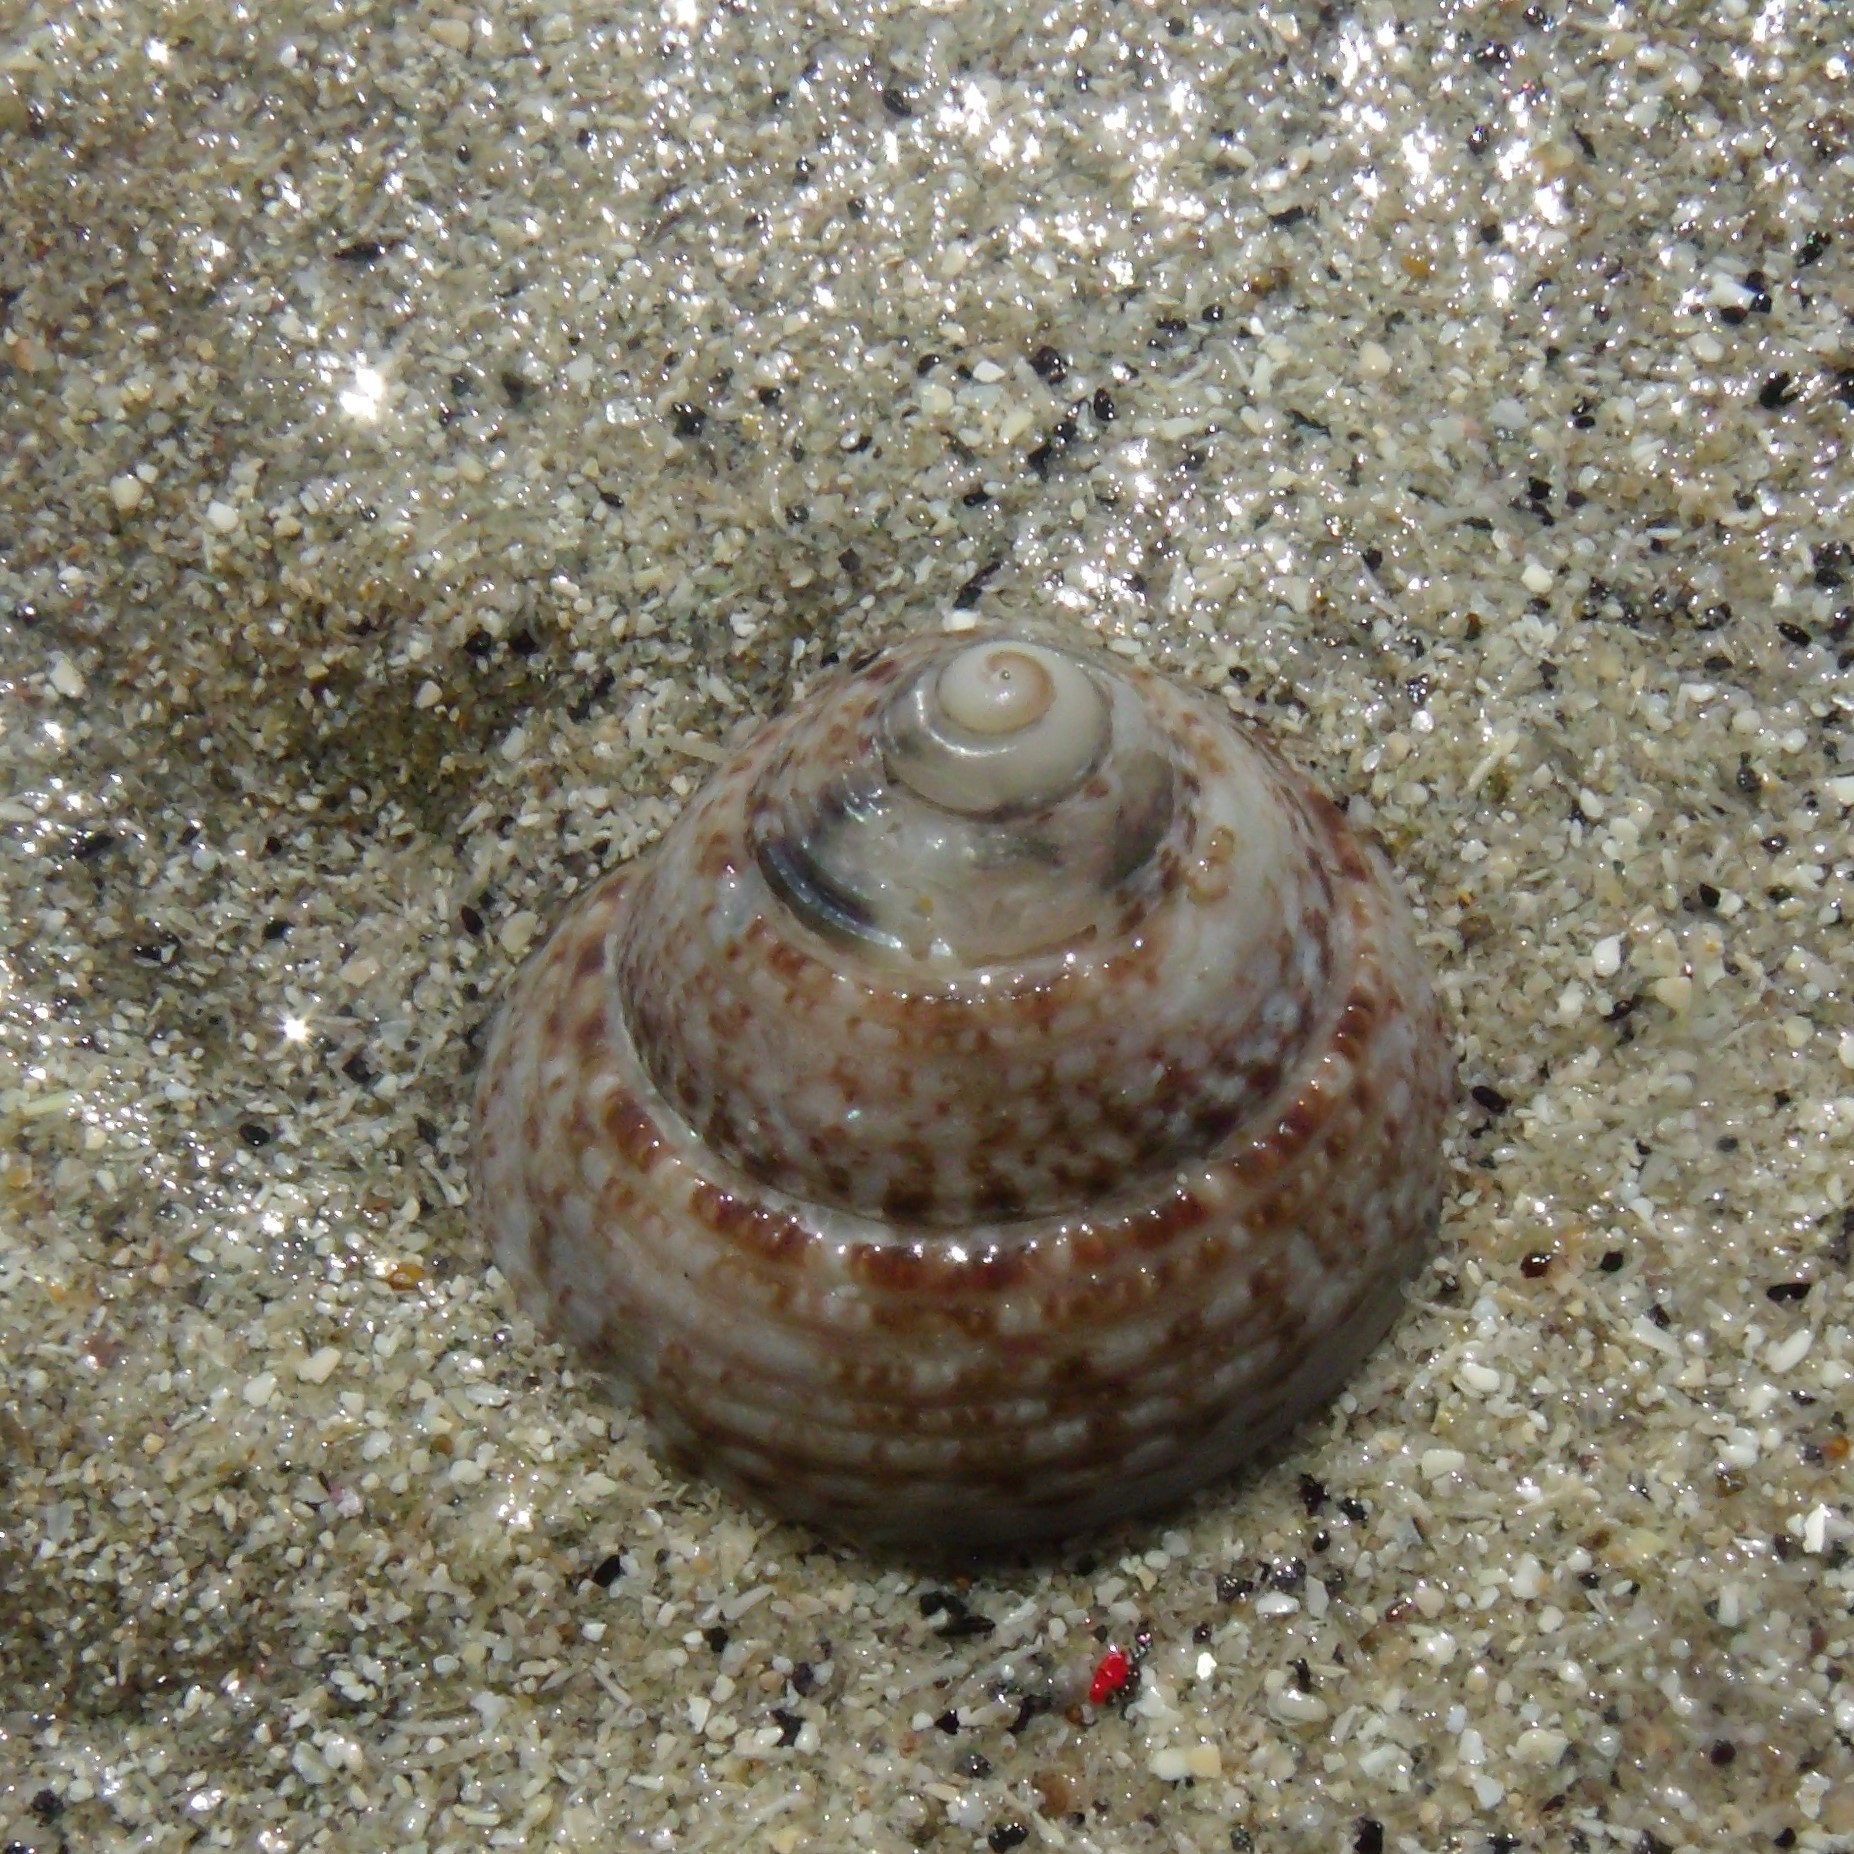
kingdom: Animalia
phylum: Mollusca
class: Gastropoda
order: Trochida
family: Trochidae
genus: Coelotrochus
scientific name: Coelotrochus tiaratus
